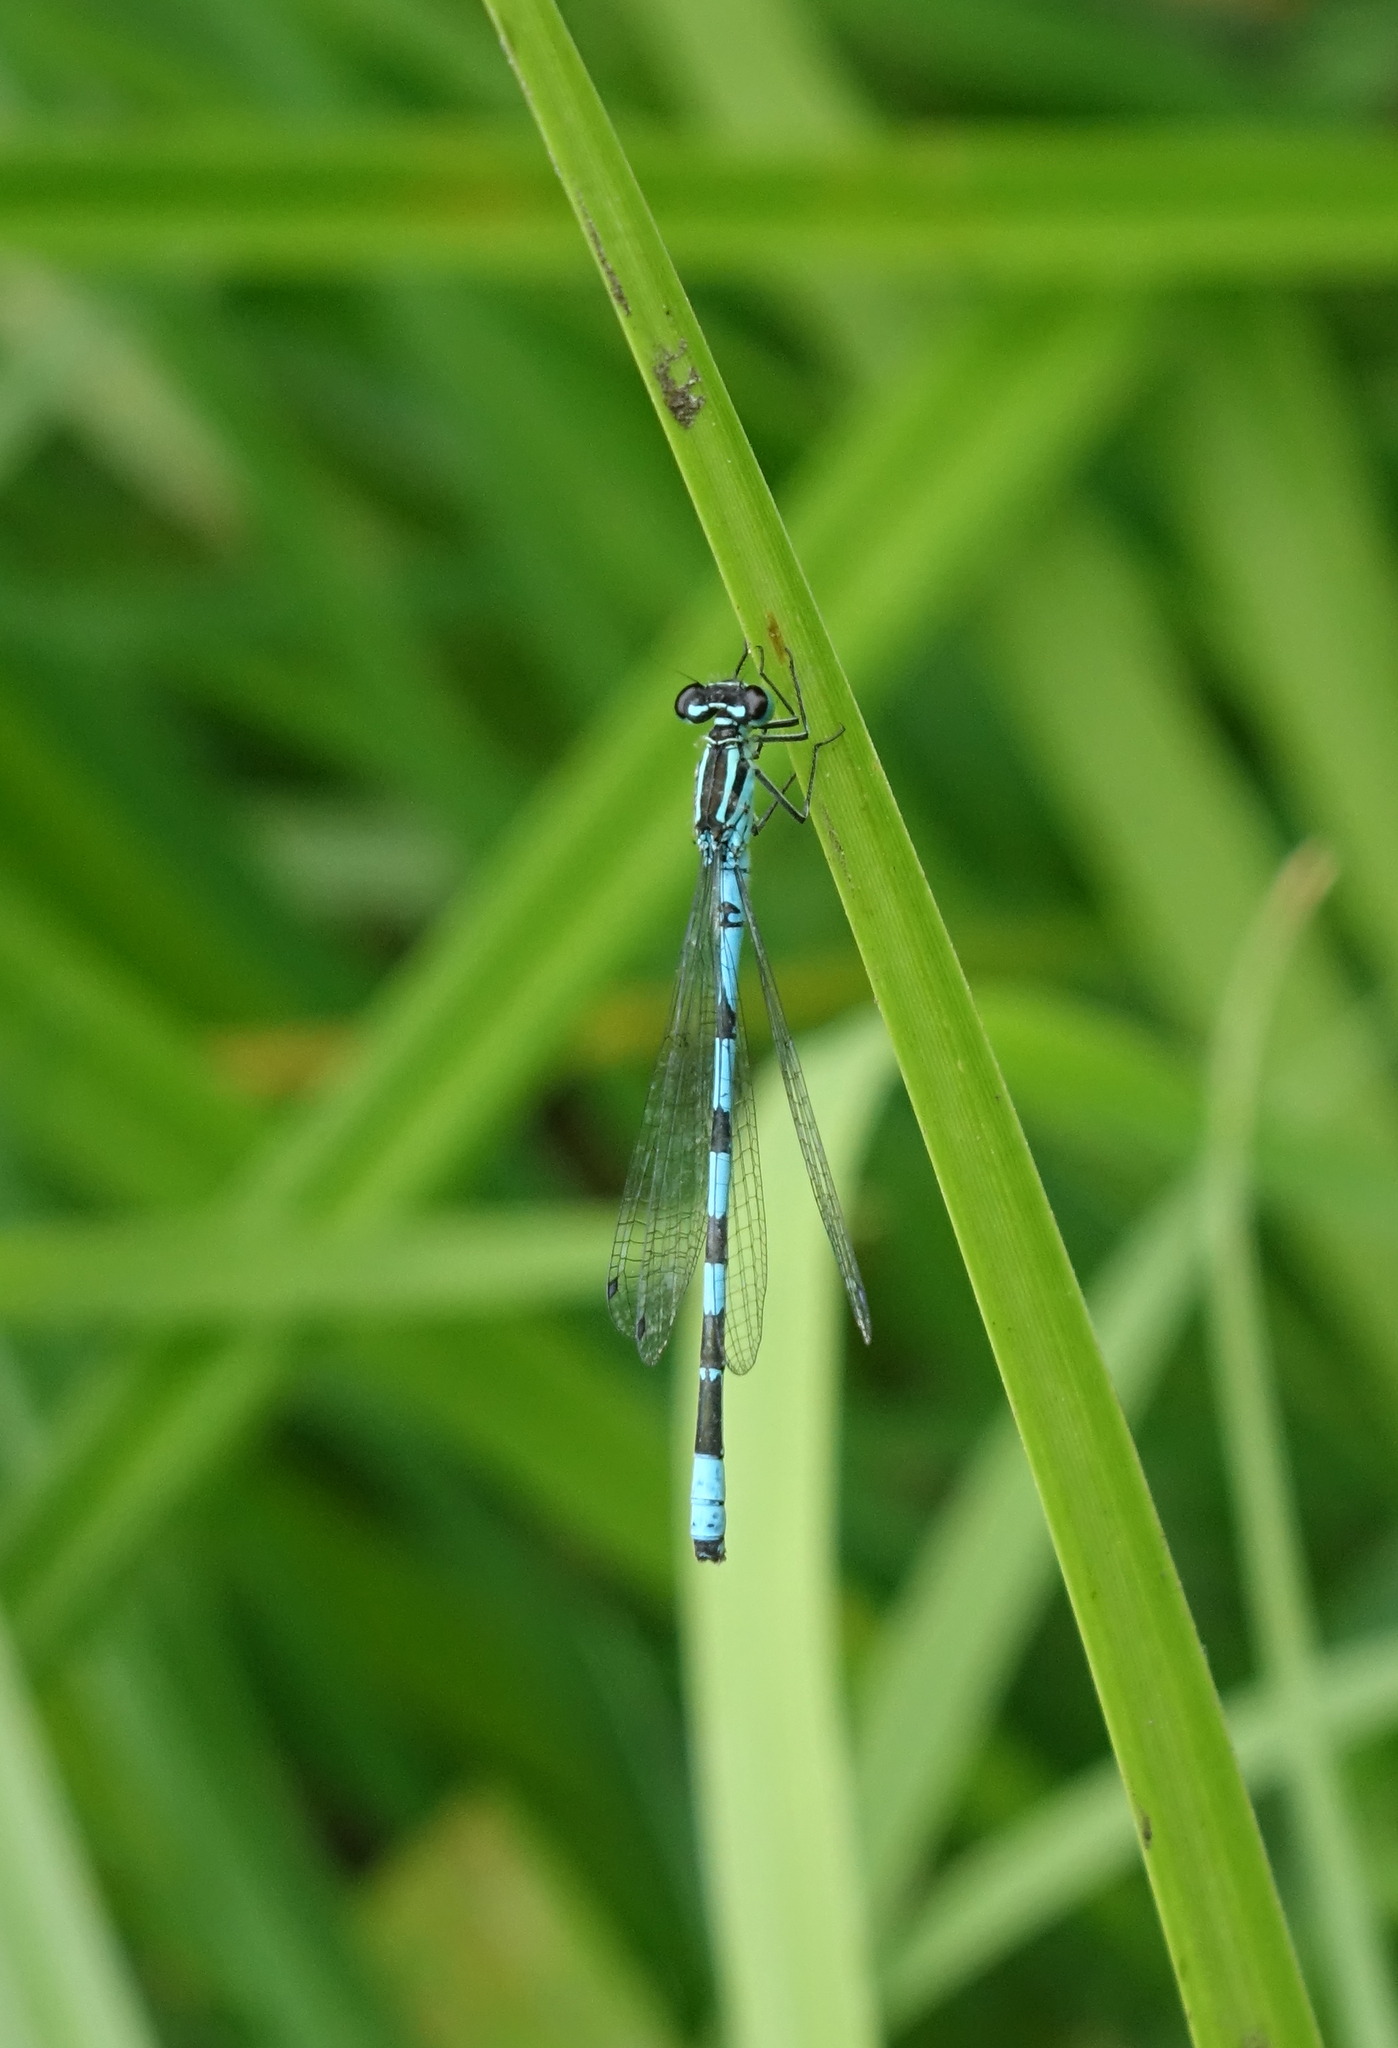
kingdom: Animalia
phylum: Arthropoda
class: Insecta
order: Odonata
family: Coenagrionidae
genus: Coenagrion
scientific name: Coenagrion hastulatum
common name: Spearhead bluet
